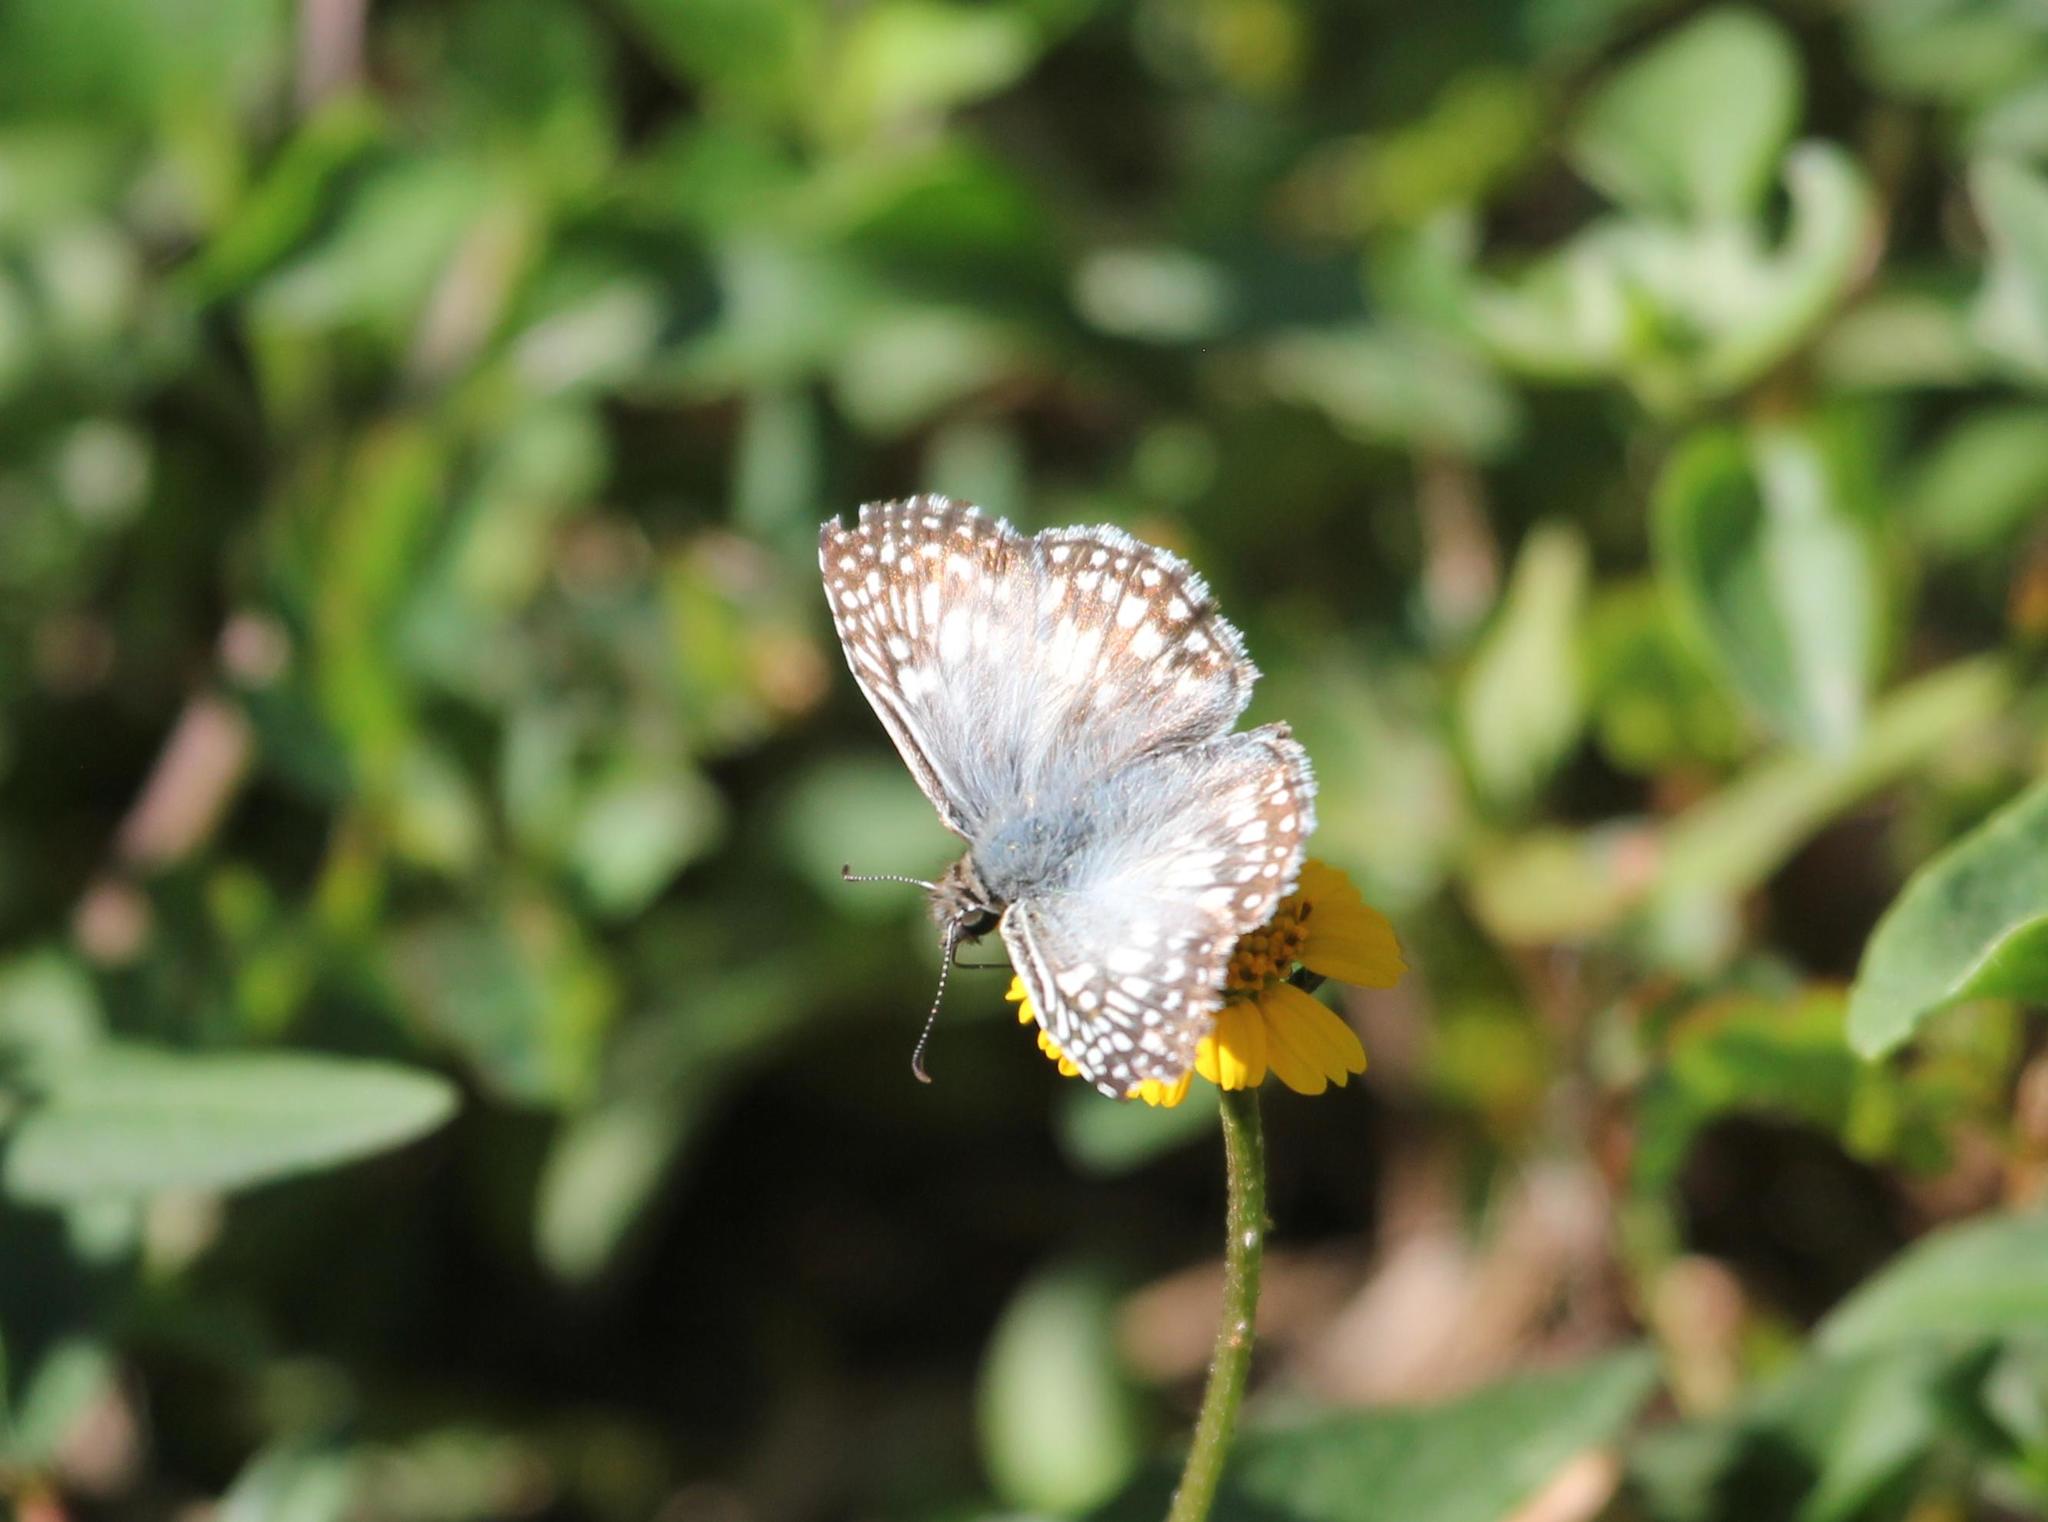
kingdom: Animalia
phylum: Arthropoda
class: Insecta
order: Lepidoptera
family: Hesperiidae
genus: Pyrgus
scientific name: Pyrgus oileus
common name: Tropical checkered-skipper
